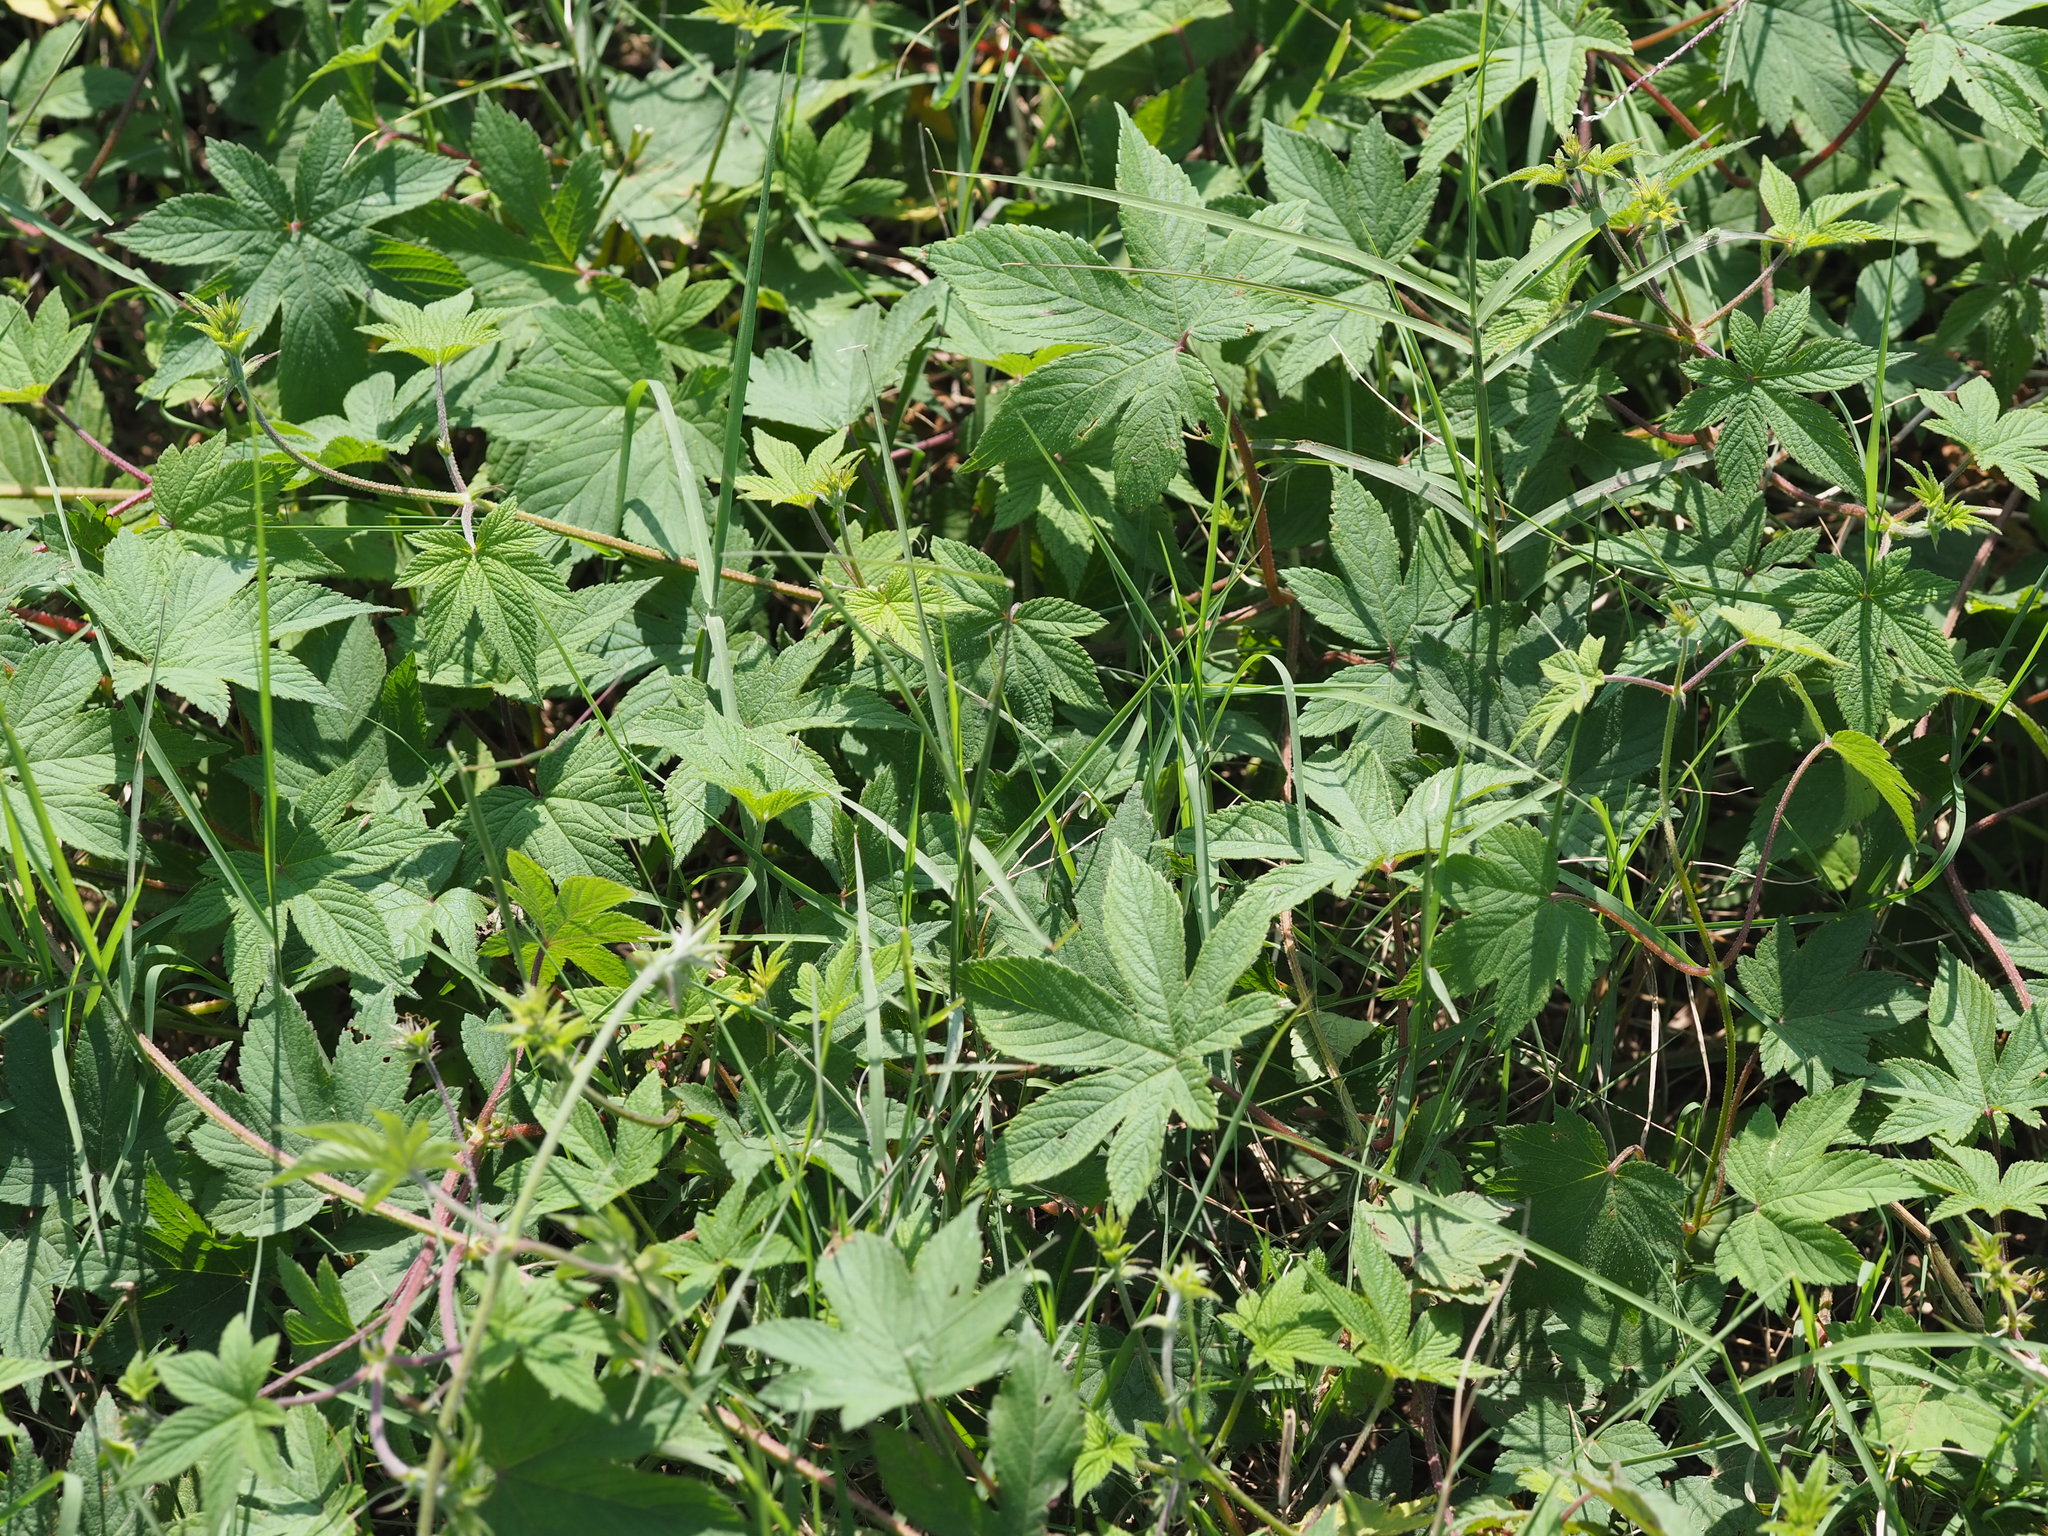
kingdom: Plantae
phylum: Tracheophyta
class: Magnoliopsida
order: Rosales
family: Cannabaceae
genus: Humulus
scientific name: Humulus scandens
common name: Japanese hop
